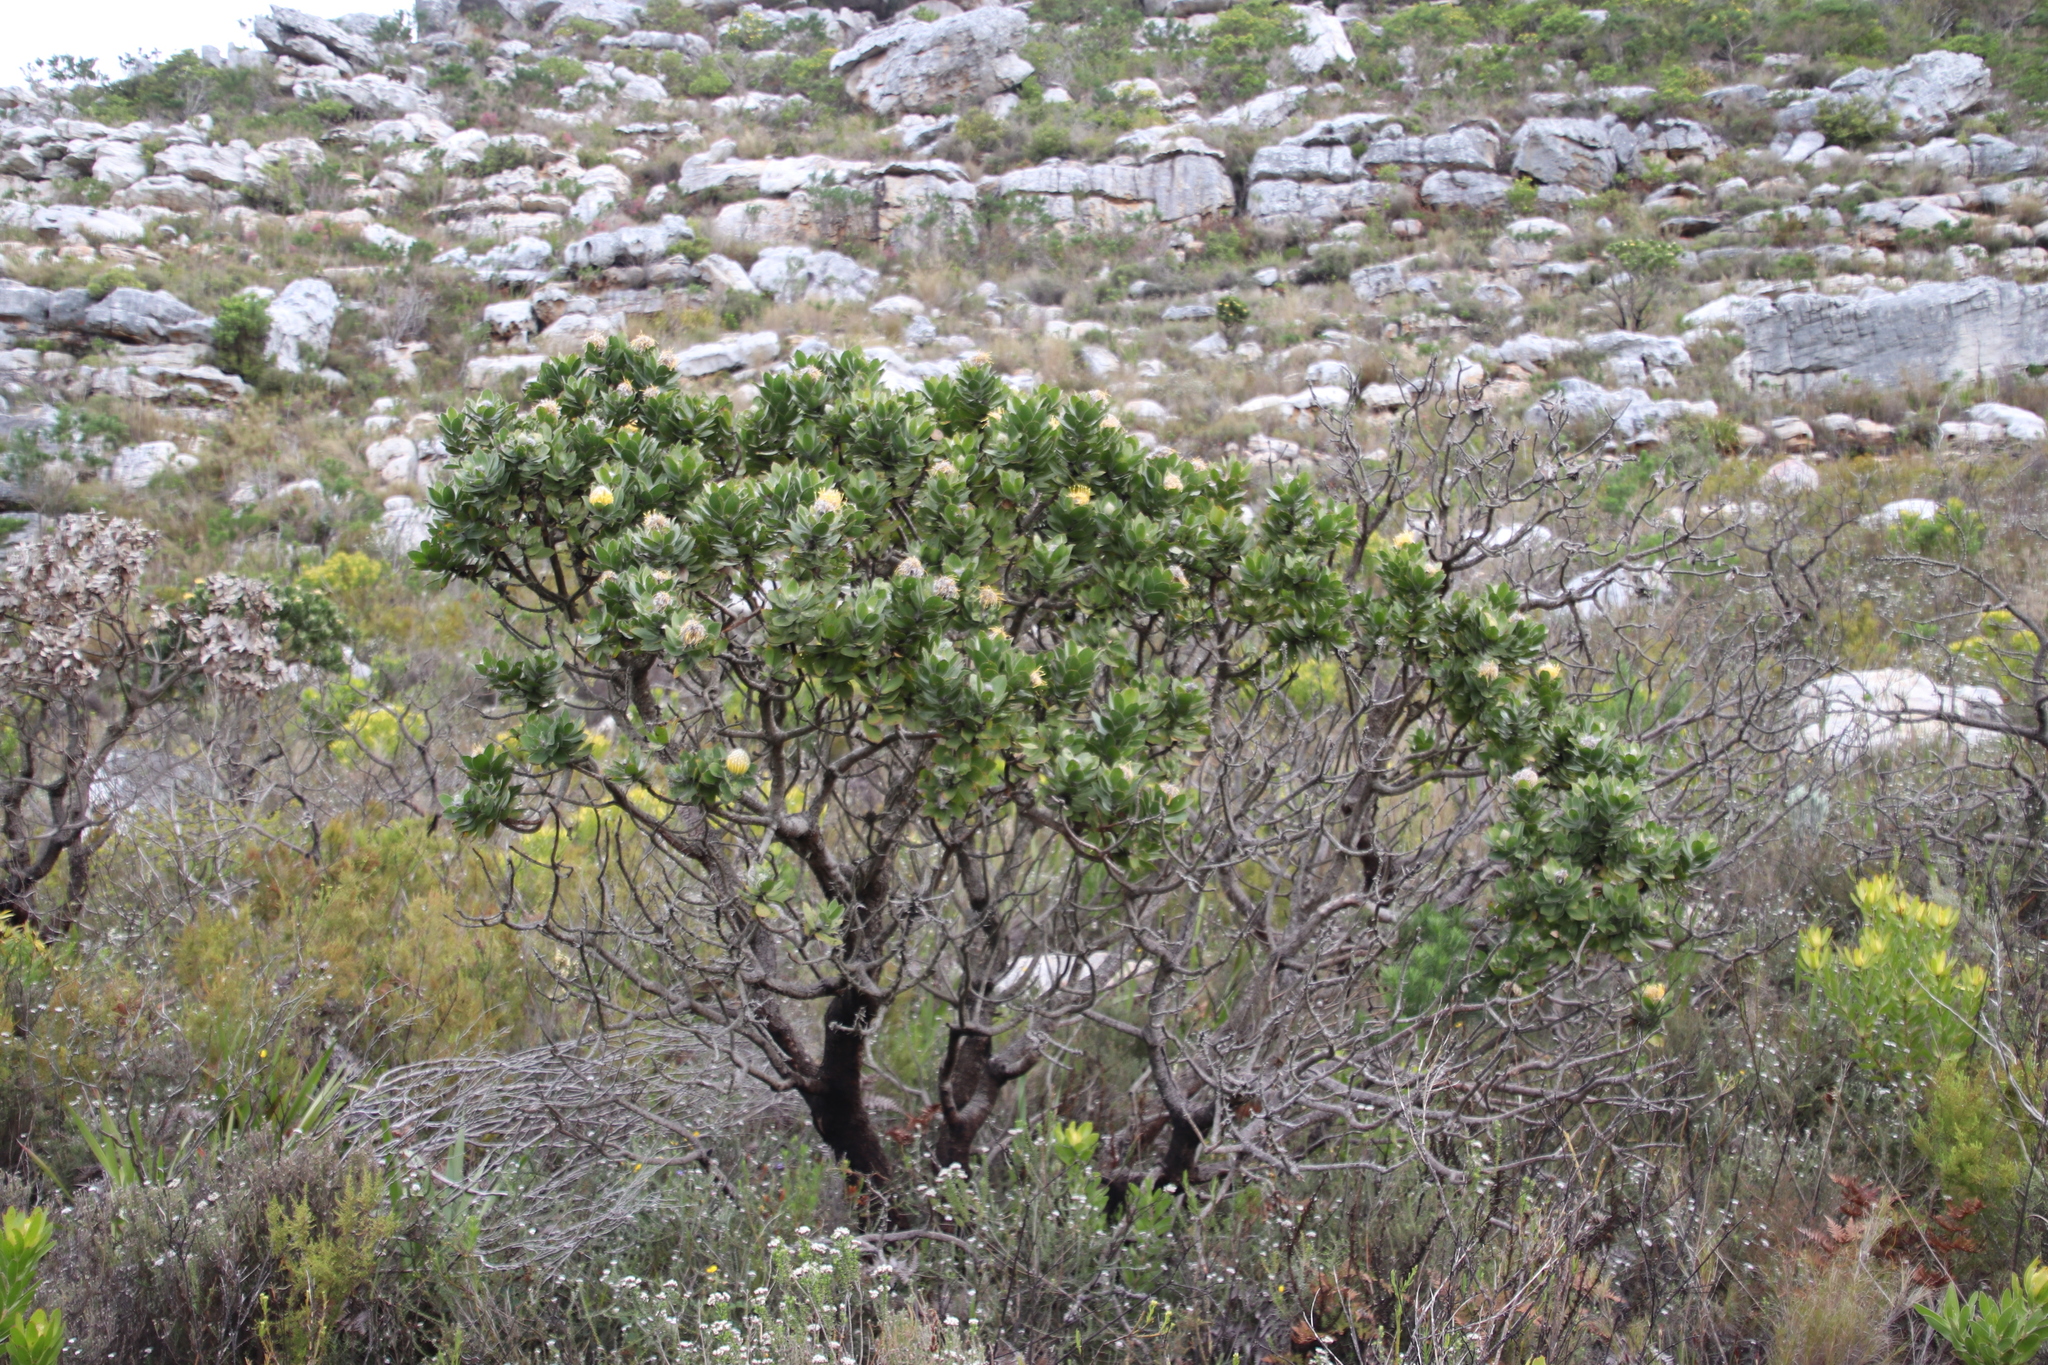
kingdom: Plantae
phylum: Tracheophyta
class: Magnoliopsida
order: Proteales
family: Proteaceae
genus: Leucospermum
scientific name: Leucospermum conocarpodendron
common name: Tree pincushion
